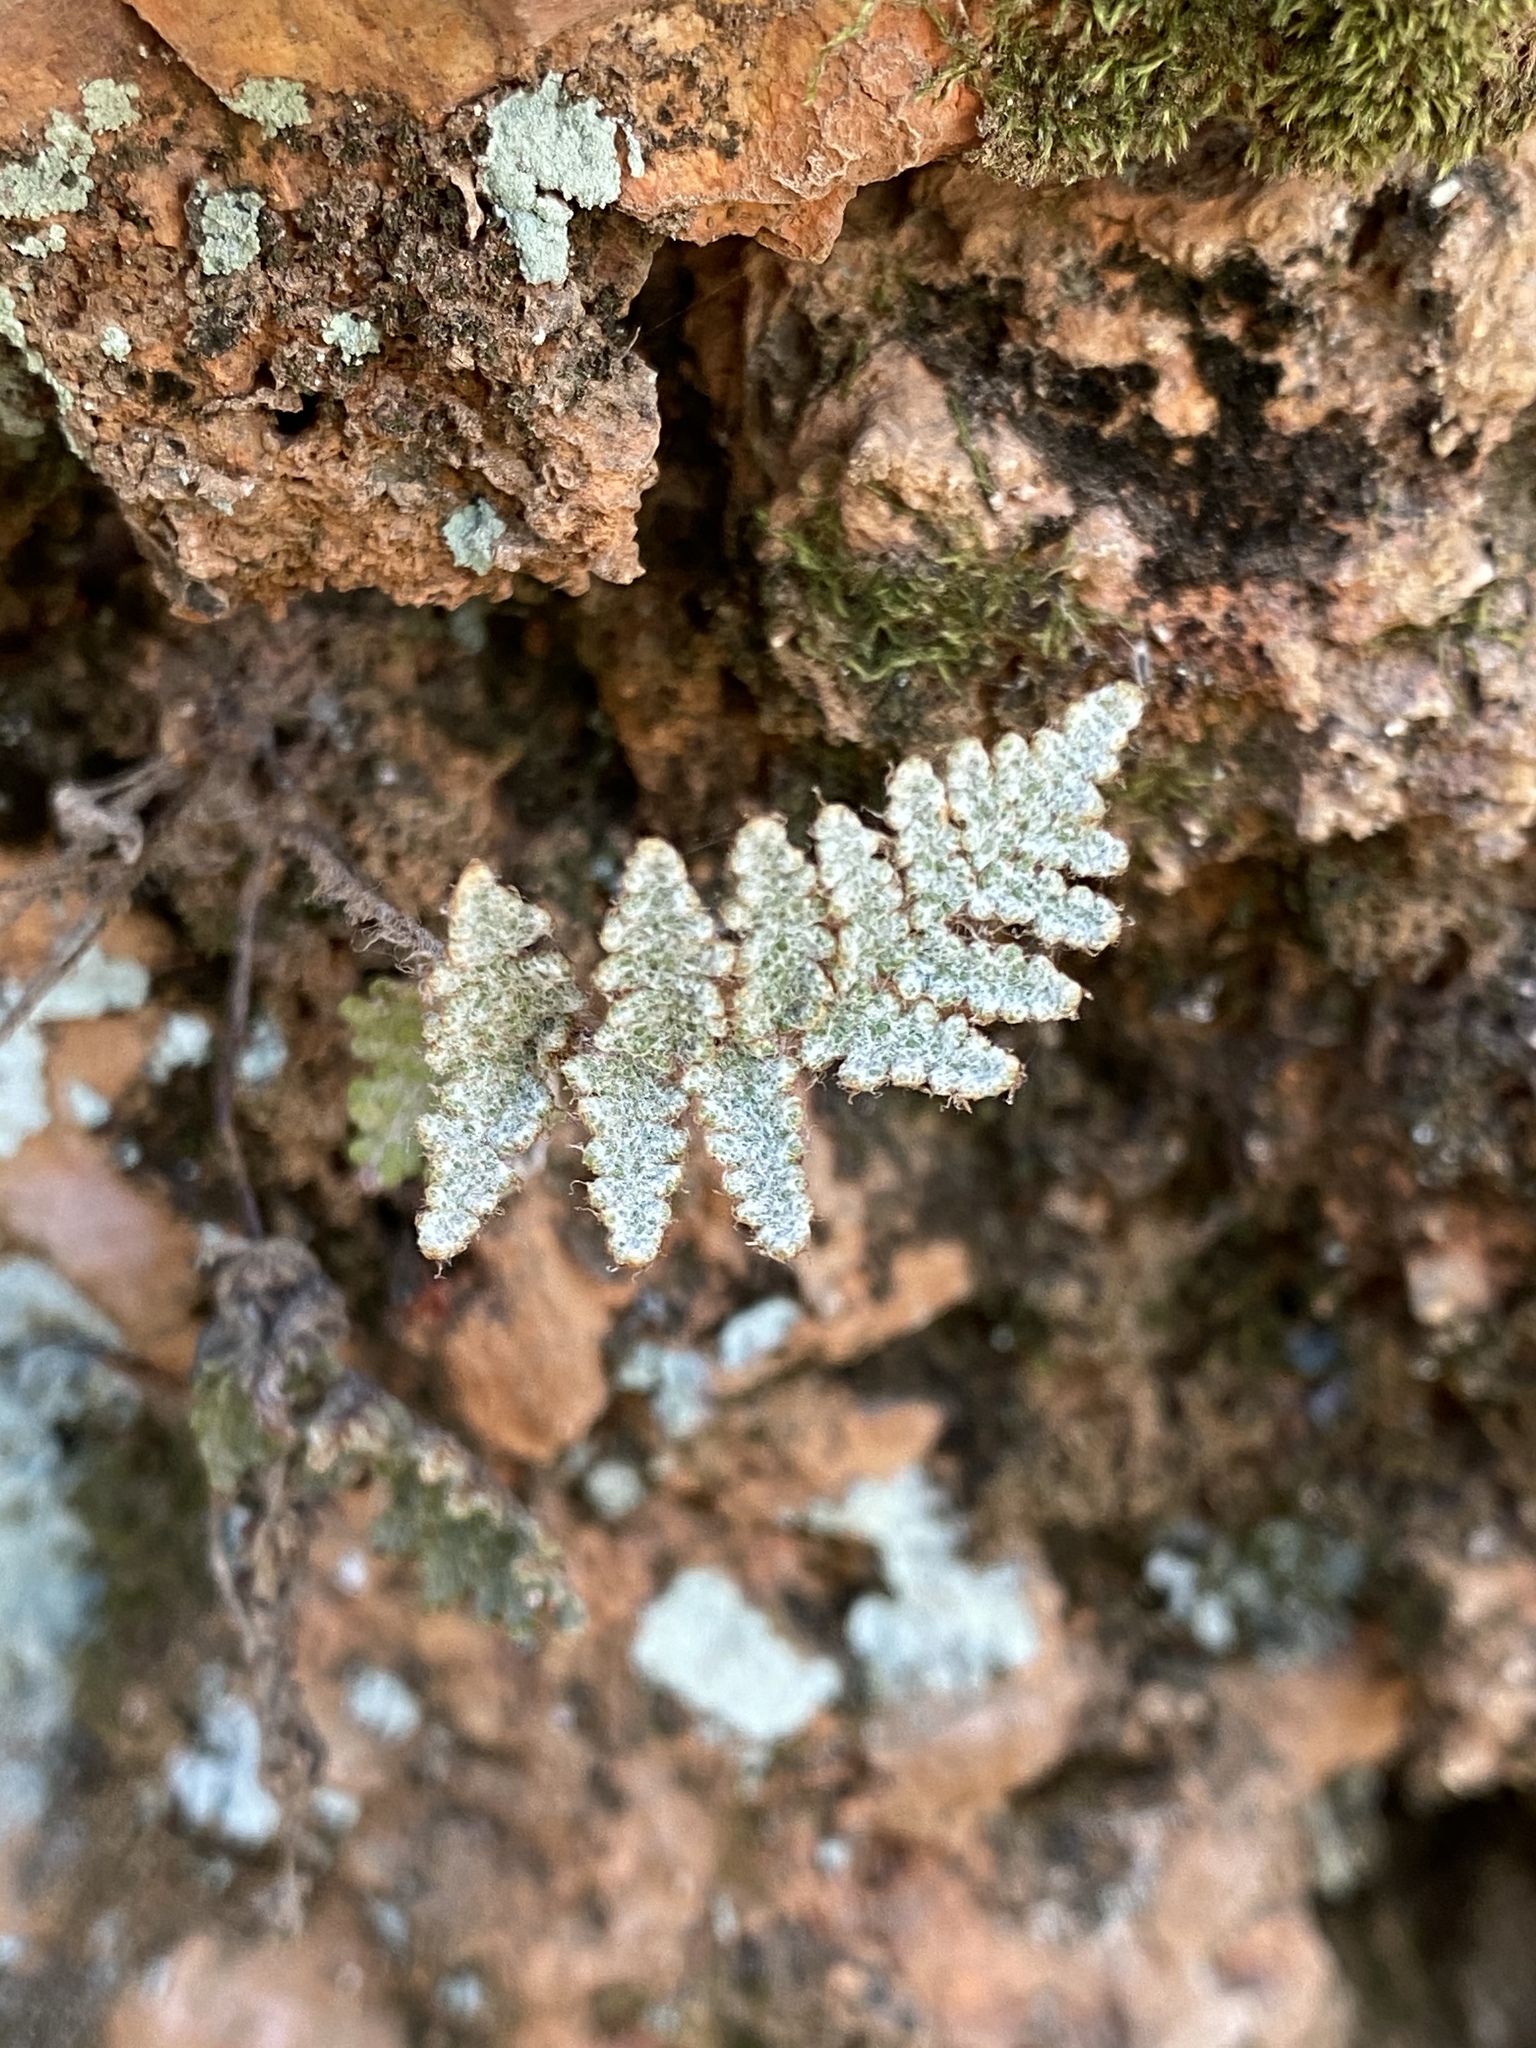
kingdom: Plantae
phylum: Tracheophyta
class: Polypodiopsida
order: Polypodiales
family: Pteridaceae
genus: Myriopteris
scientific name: Myriopteris lindheimeri
